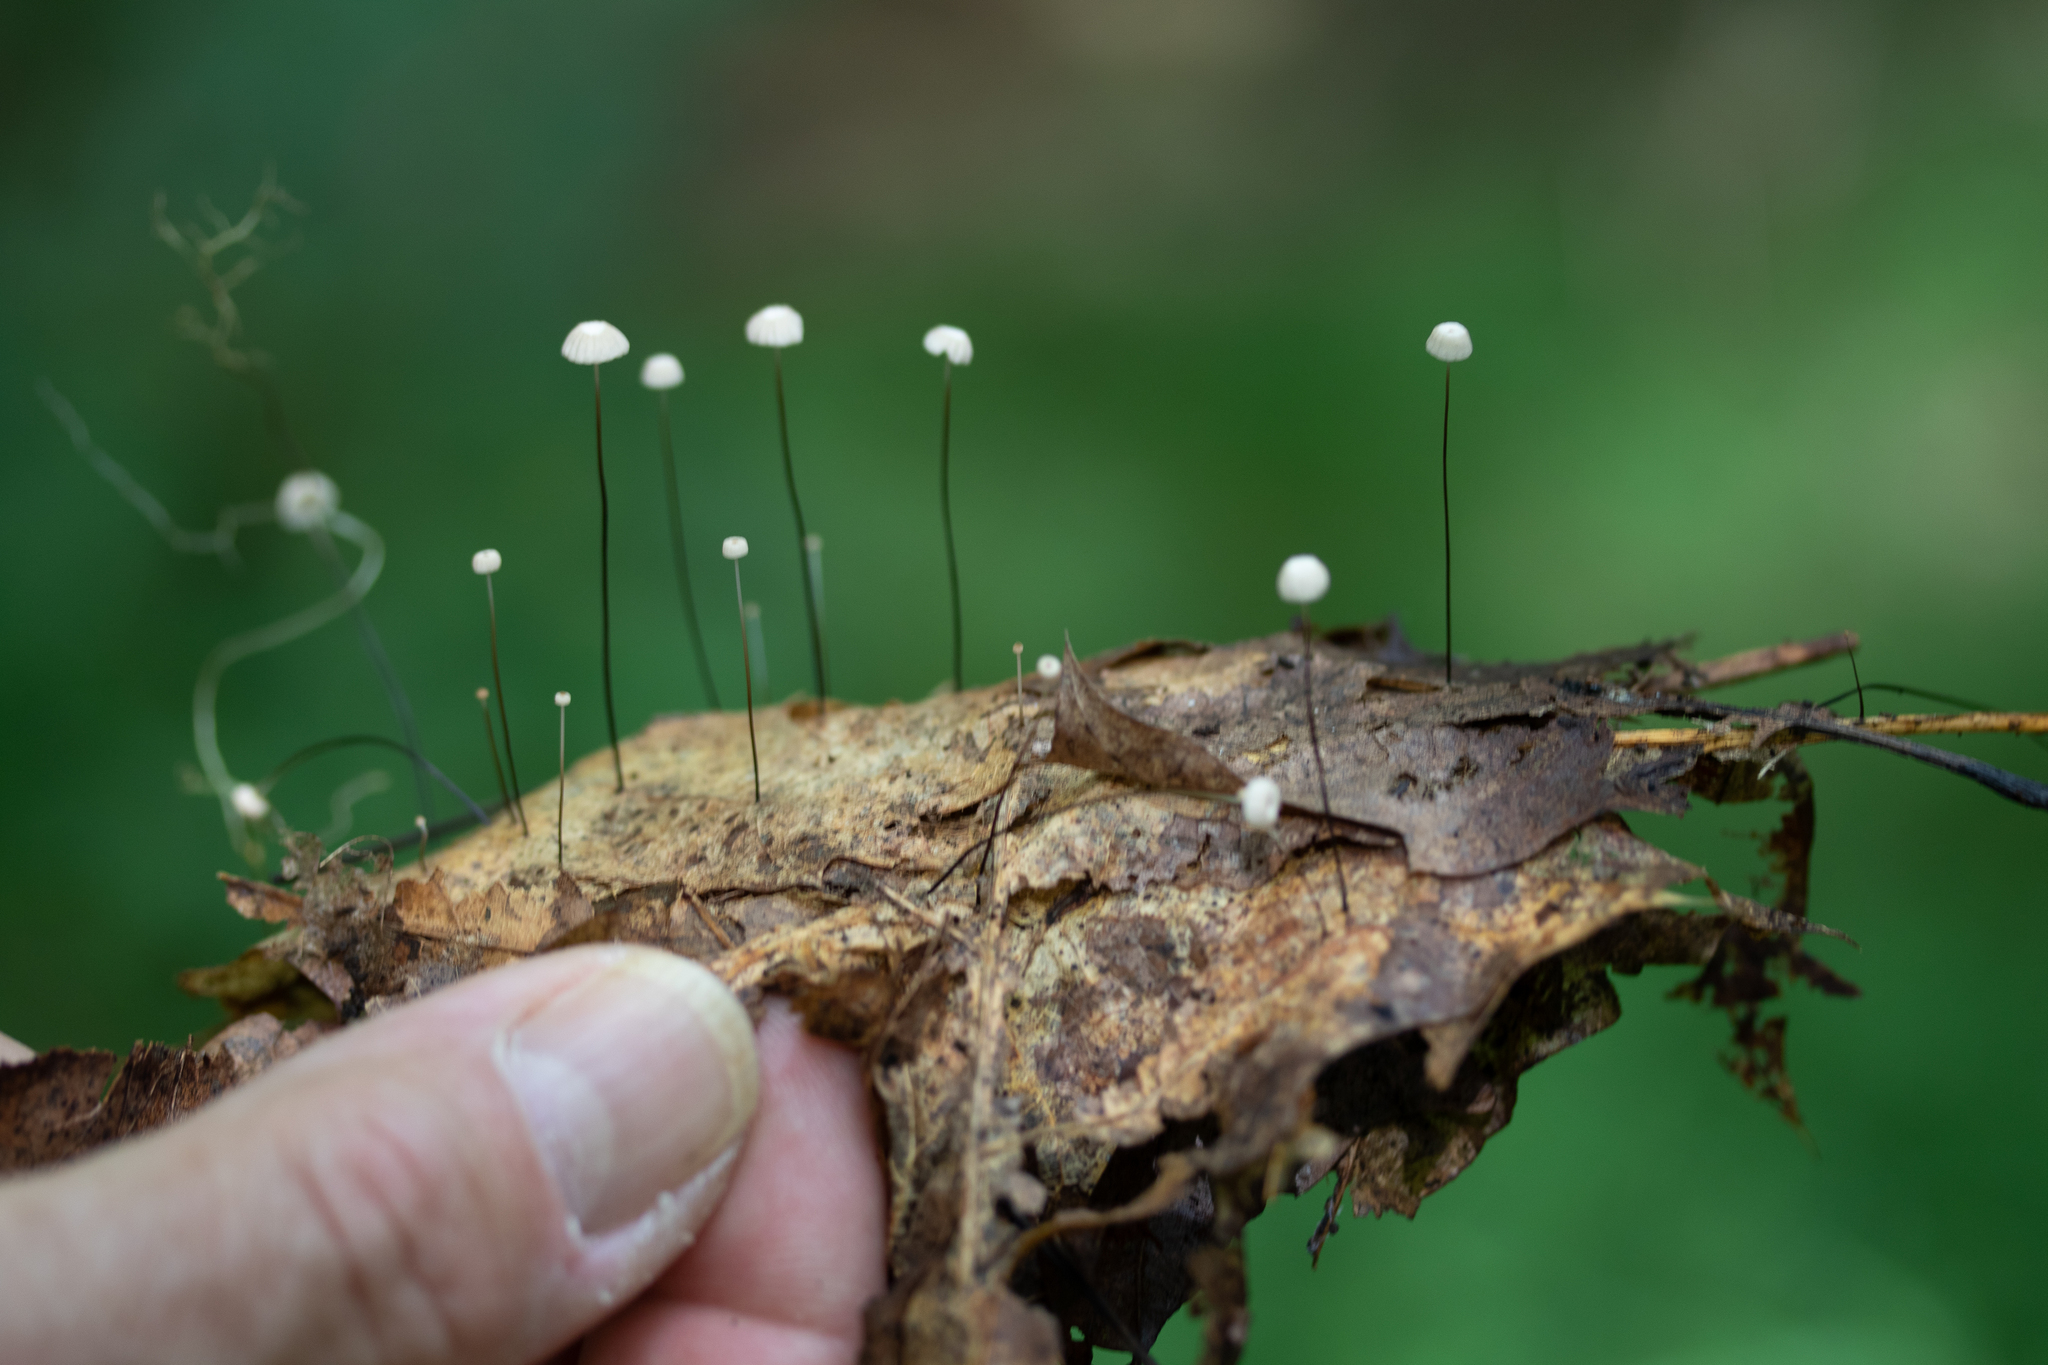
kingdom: Fungi
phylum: Basidiomycota
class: Agaricomycetes
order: Agaricales
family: Marasmiaceae
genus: Marasmius
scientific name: Marasmius capillaris
